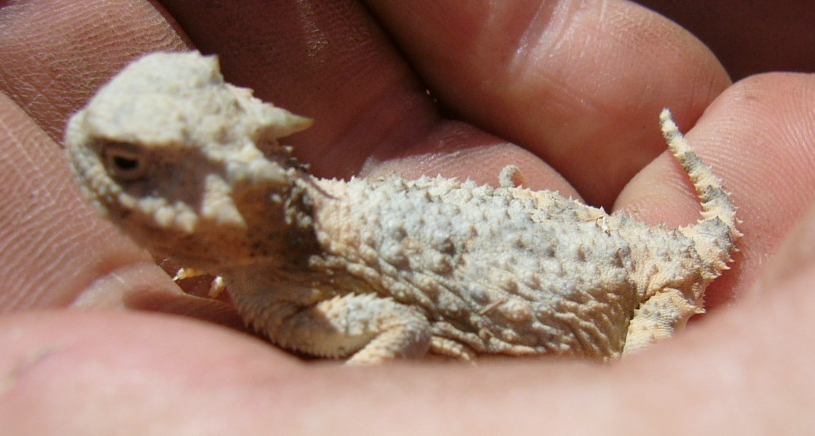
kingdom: Animalia
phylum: Chordata
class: Squamata
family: Phrynosomatidae
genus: Phrynosoma
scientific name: Phrynosoma platyrhinos
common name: Desert horned lizard
